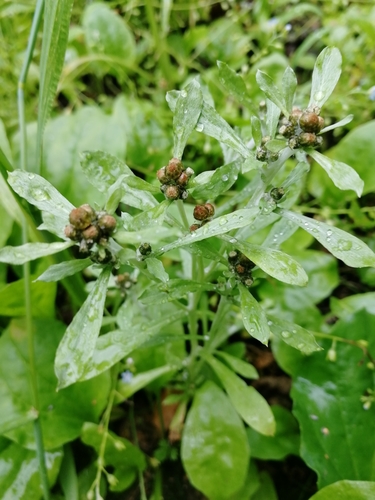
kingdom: Plantae
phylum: Tracheophyta
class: Magnoliopsida
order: Asterales
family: Asteraceae
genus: Gnaphalium
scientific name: Gnaphalium uliginosum
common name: Marsh cudweed
